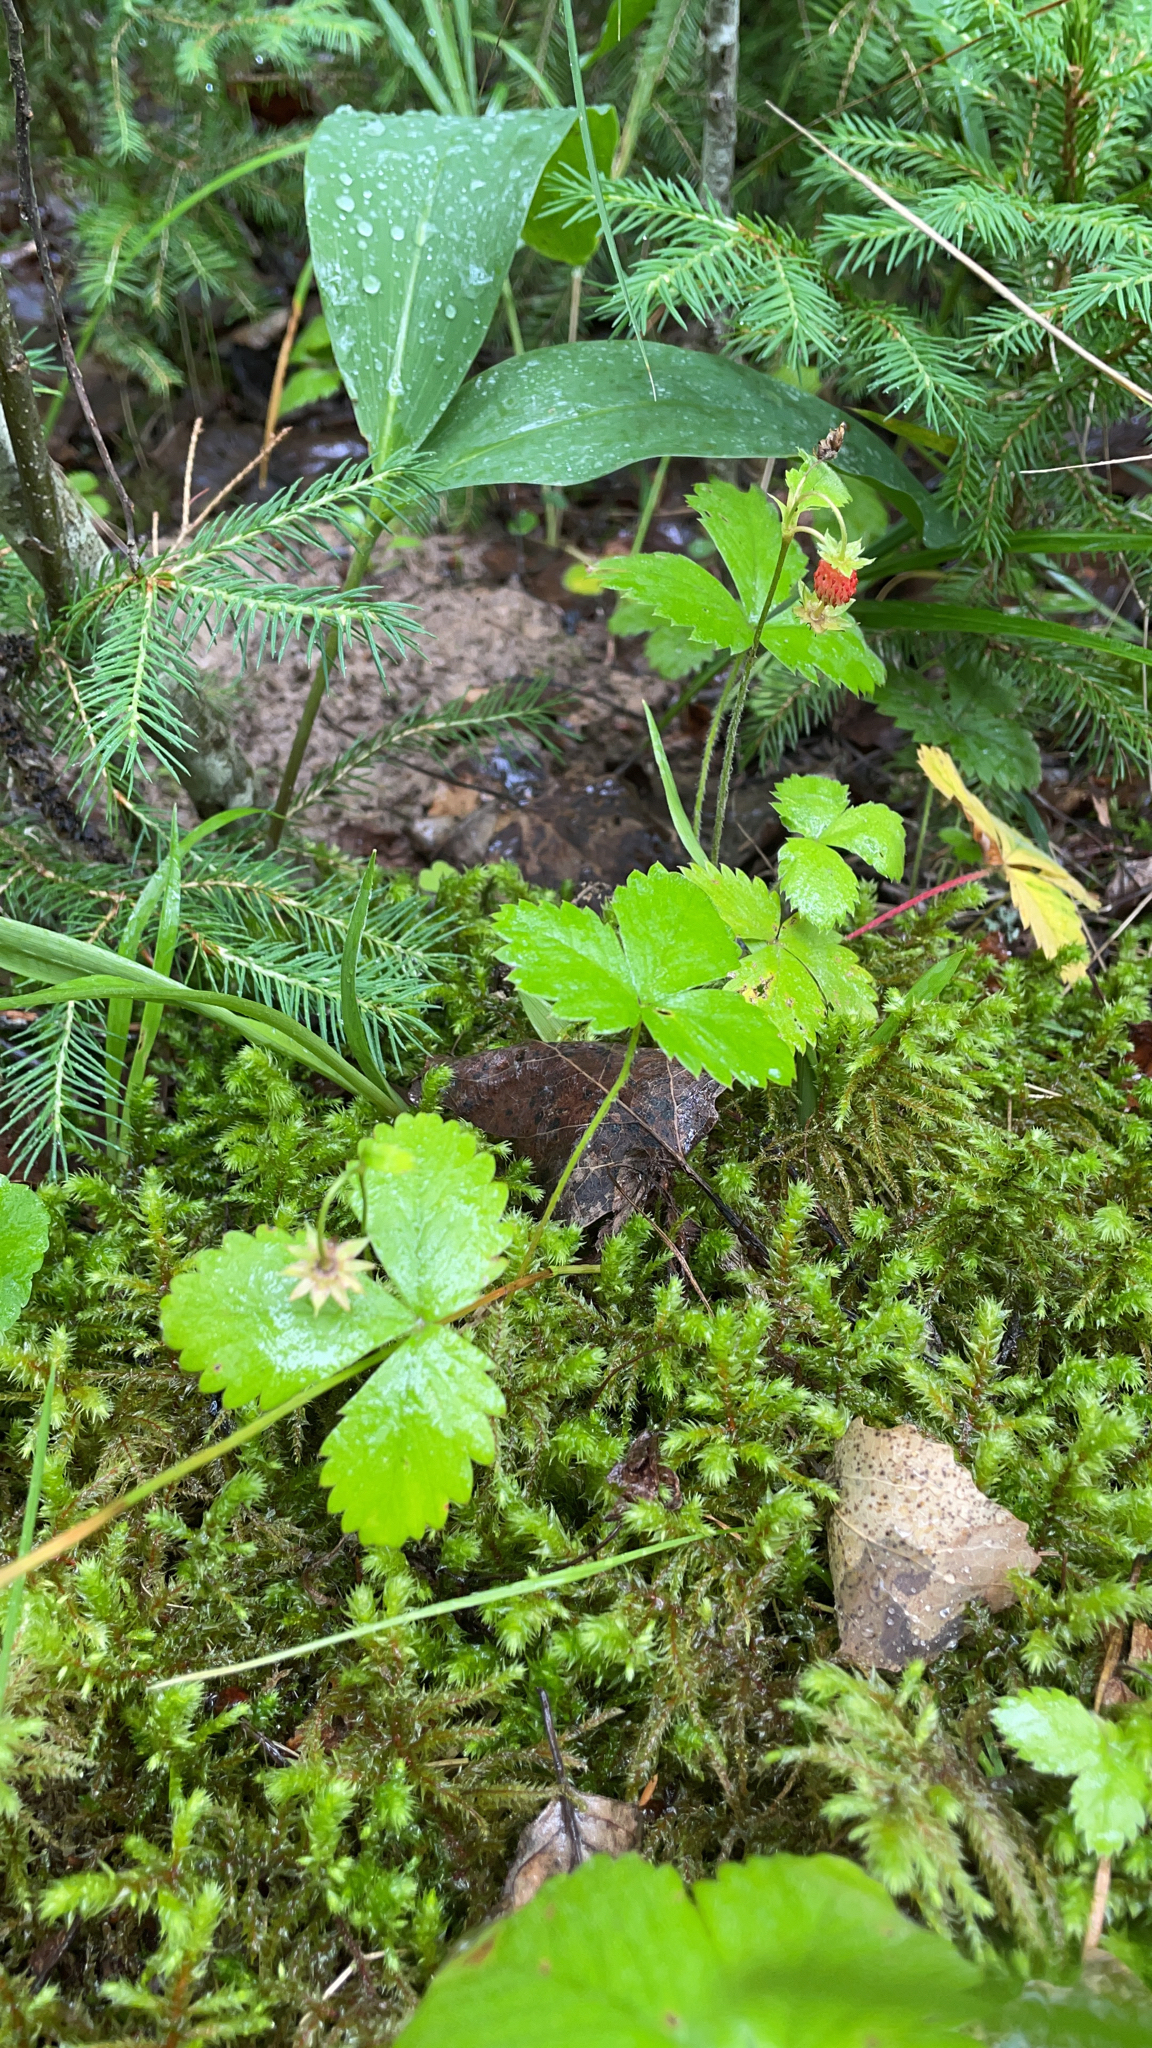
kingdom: Plantae
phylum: Tracheophyta
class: Magnoliopsida
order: Rosales
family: Rosaceae
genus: Fragaria
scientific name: Fragaria vesca
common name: Wild strawberry
